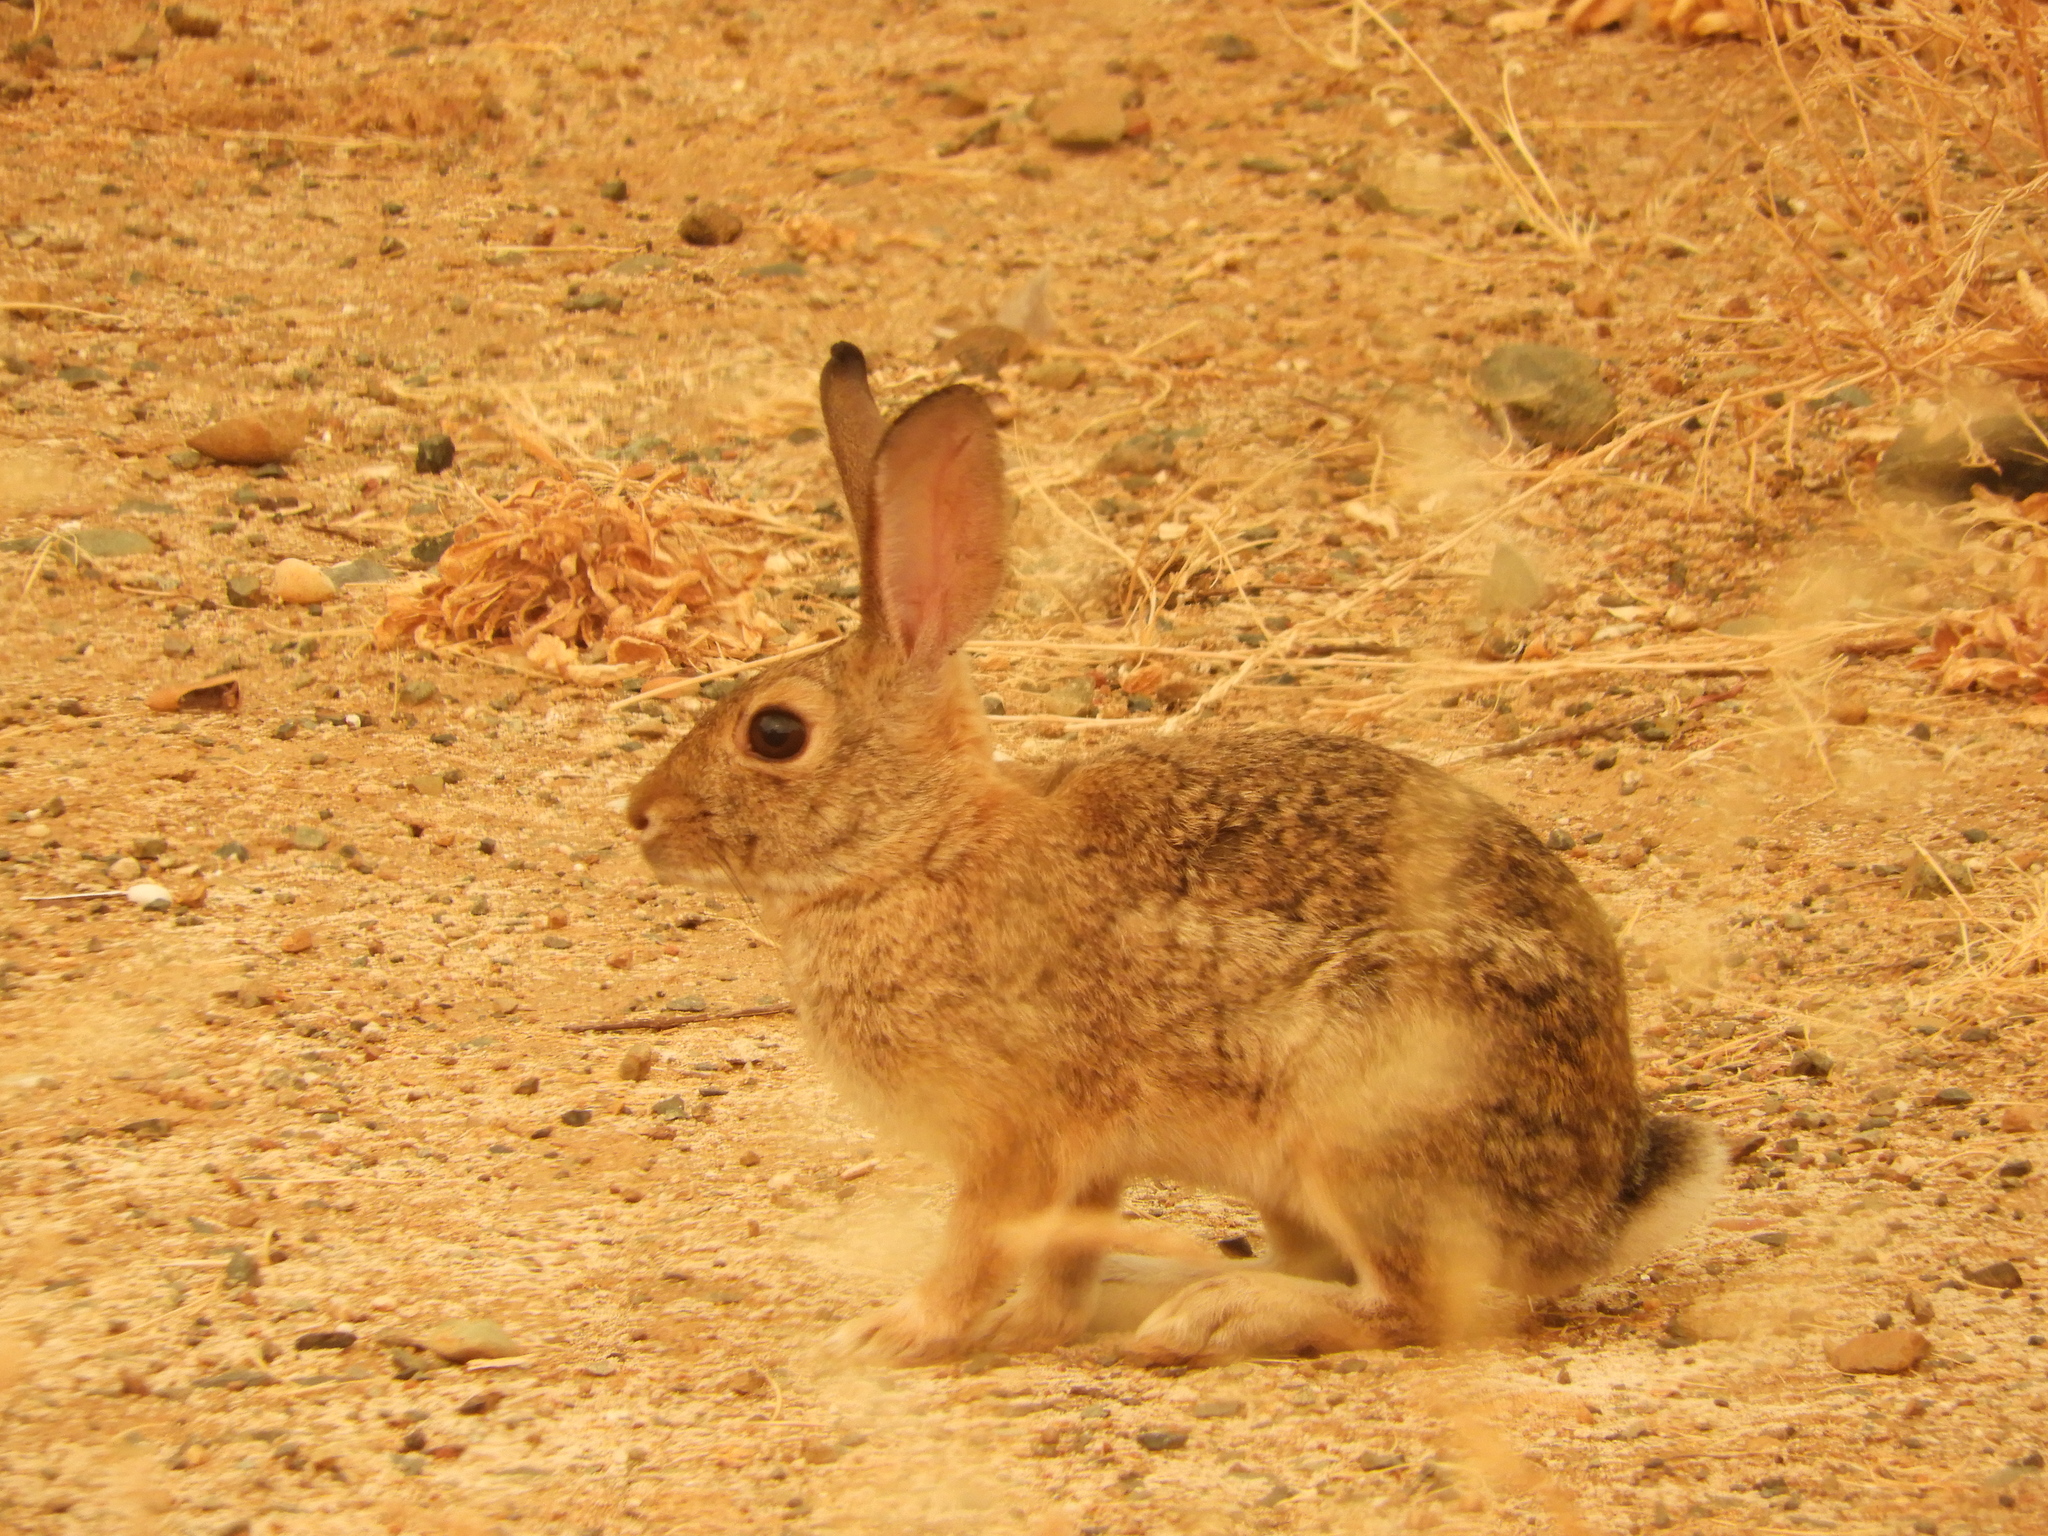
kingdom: Animalia
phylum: Chordata
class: Mammalia
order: Lagomorpha
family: Leporidae
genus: Sylvilagus
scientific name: Sylvilagus audubonii
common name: Desert cottontail
